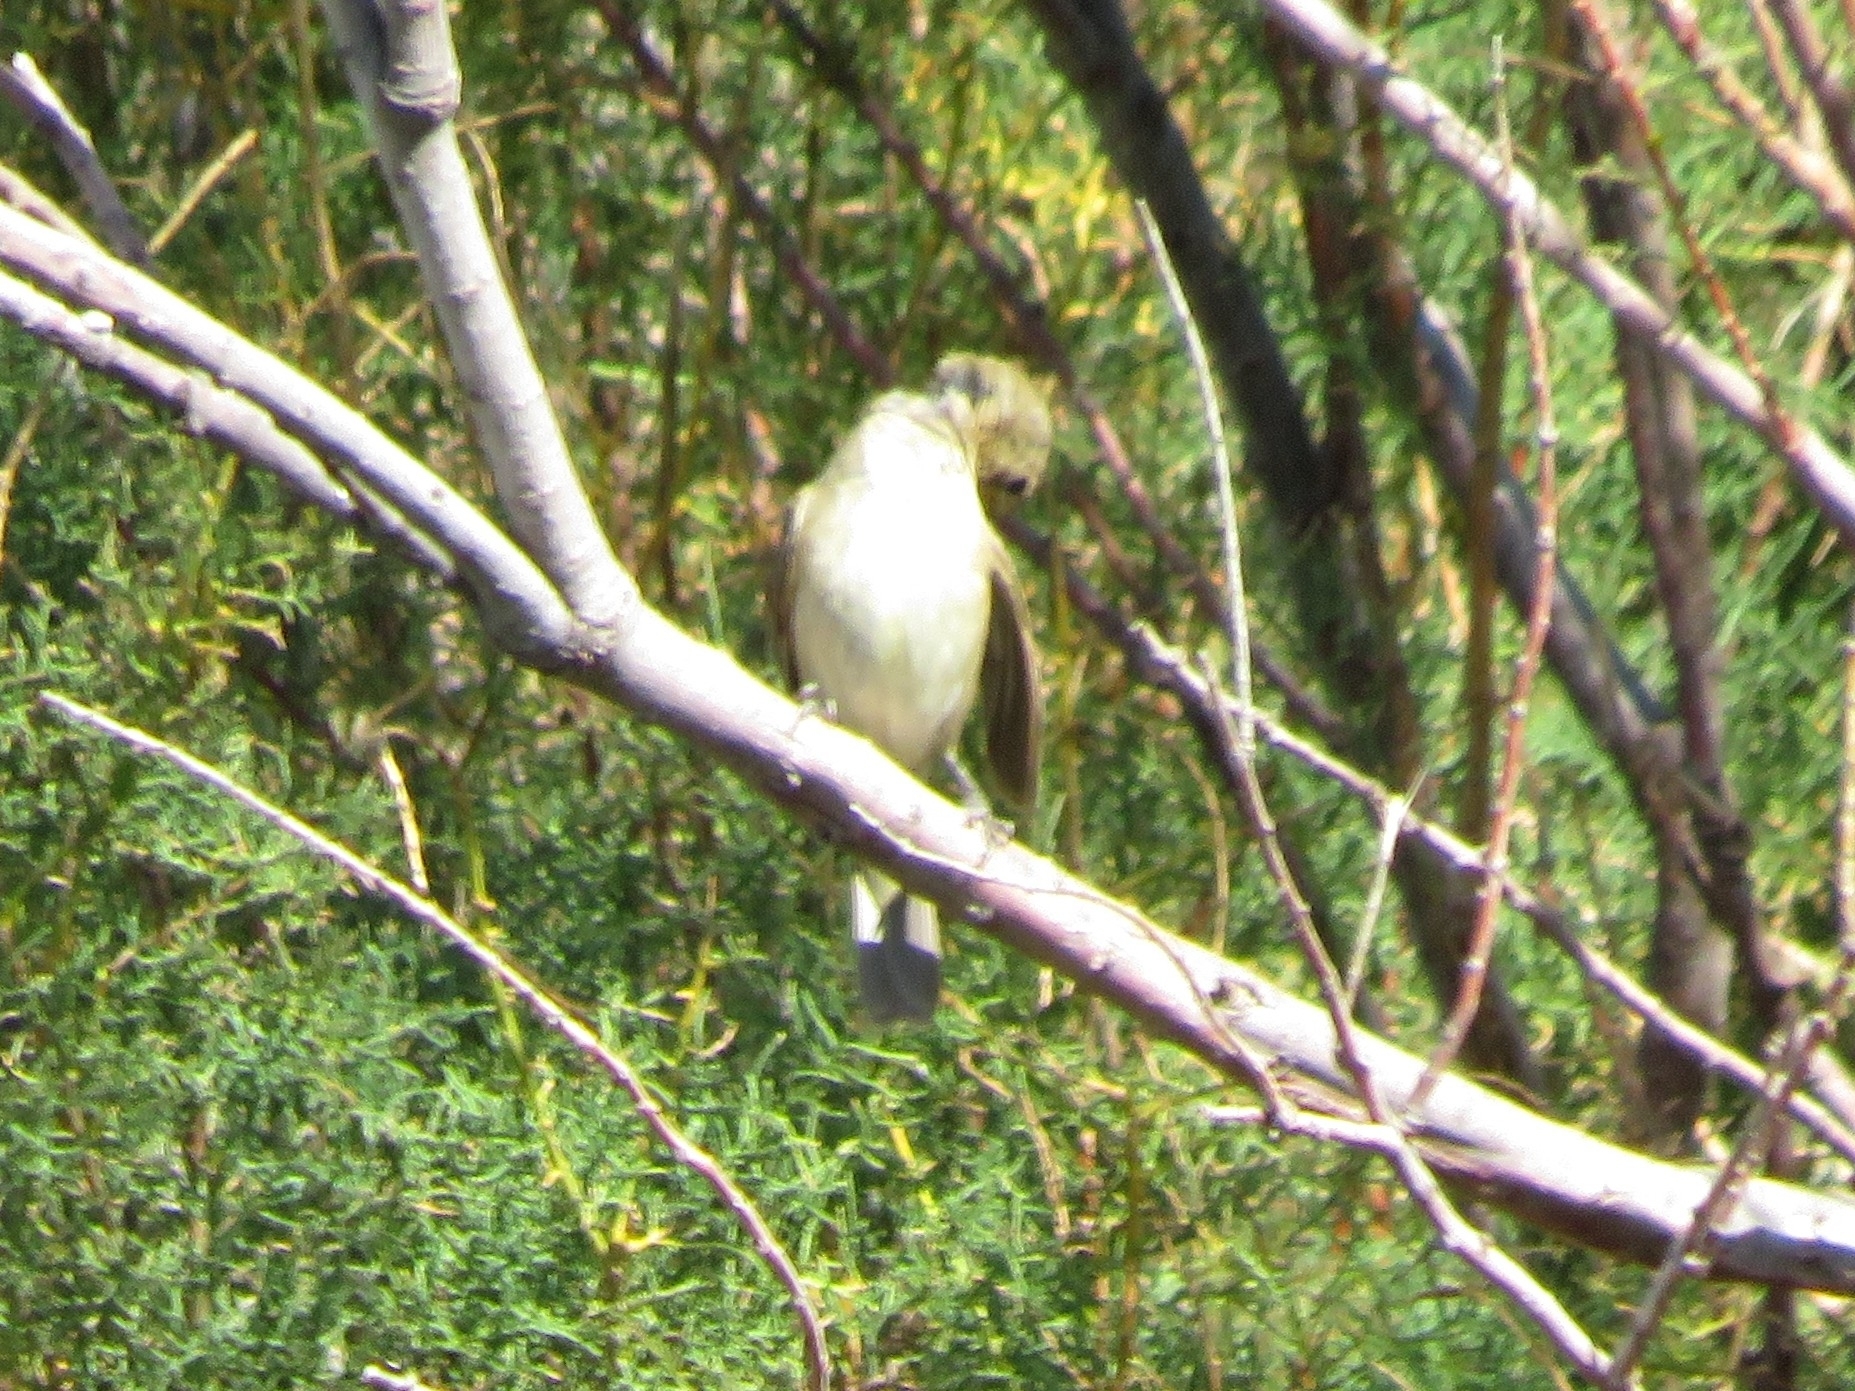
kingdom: Animalia
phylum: Chordata
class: Aves
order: Passeriformes
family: Thraupidae
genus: Sporophila
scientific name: Sporophila caerulescens
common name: Double-collared seedeater
